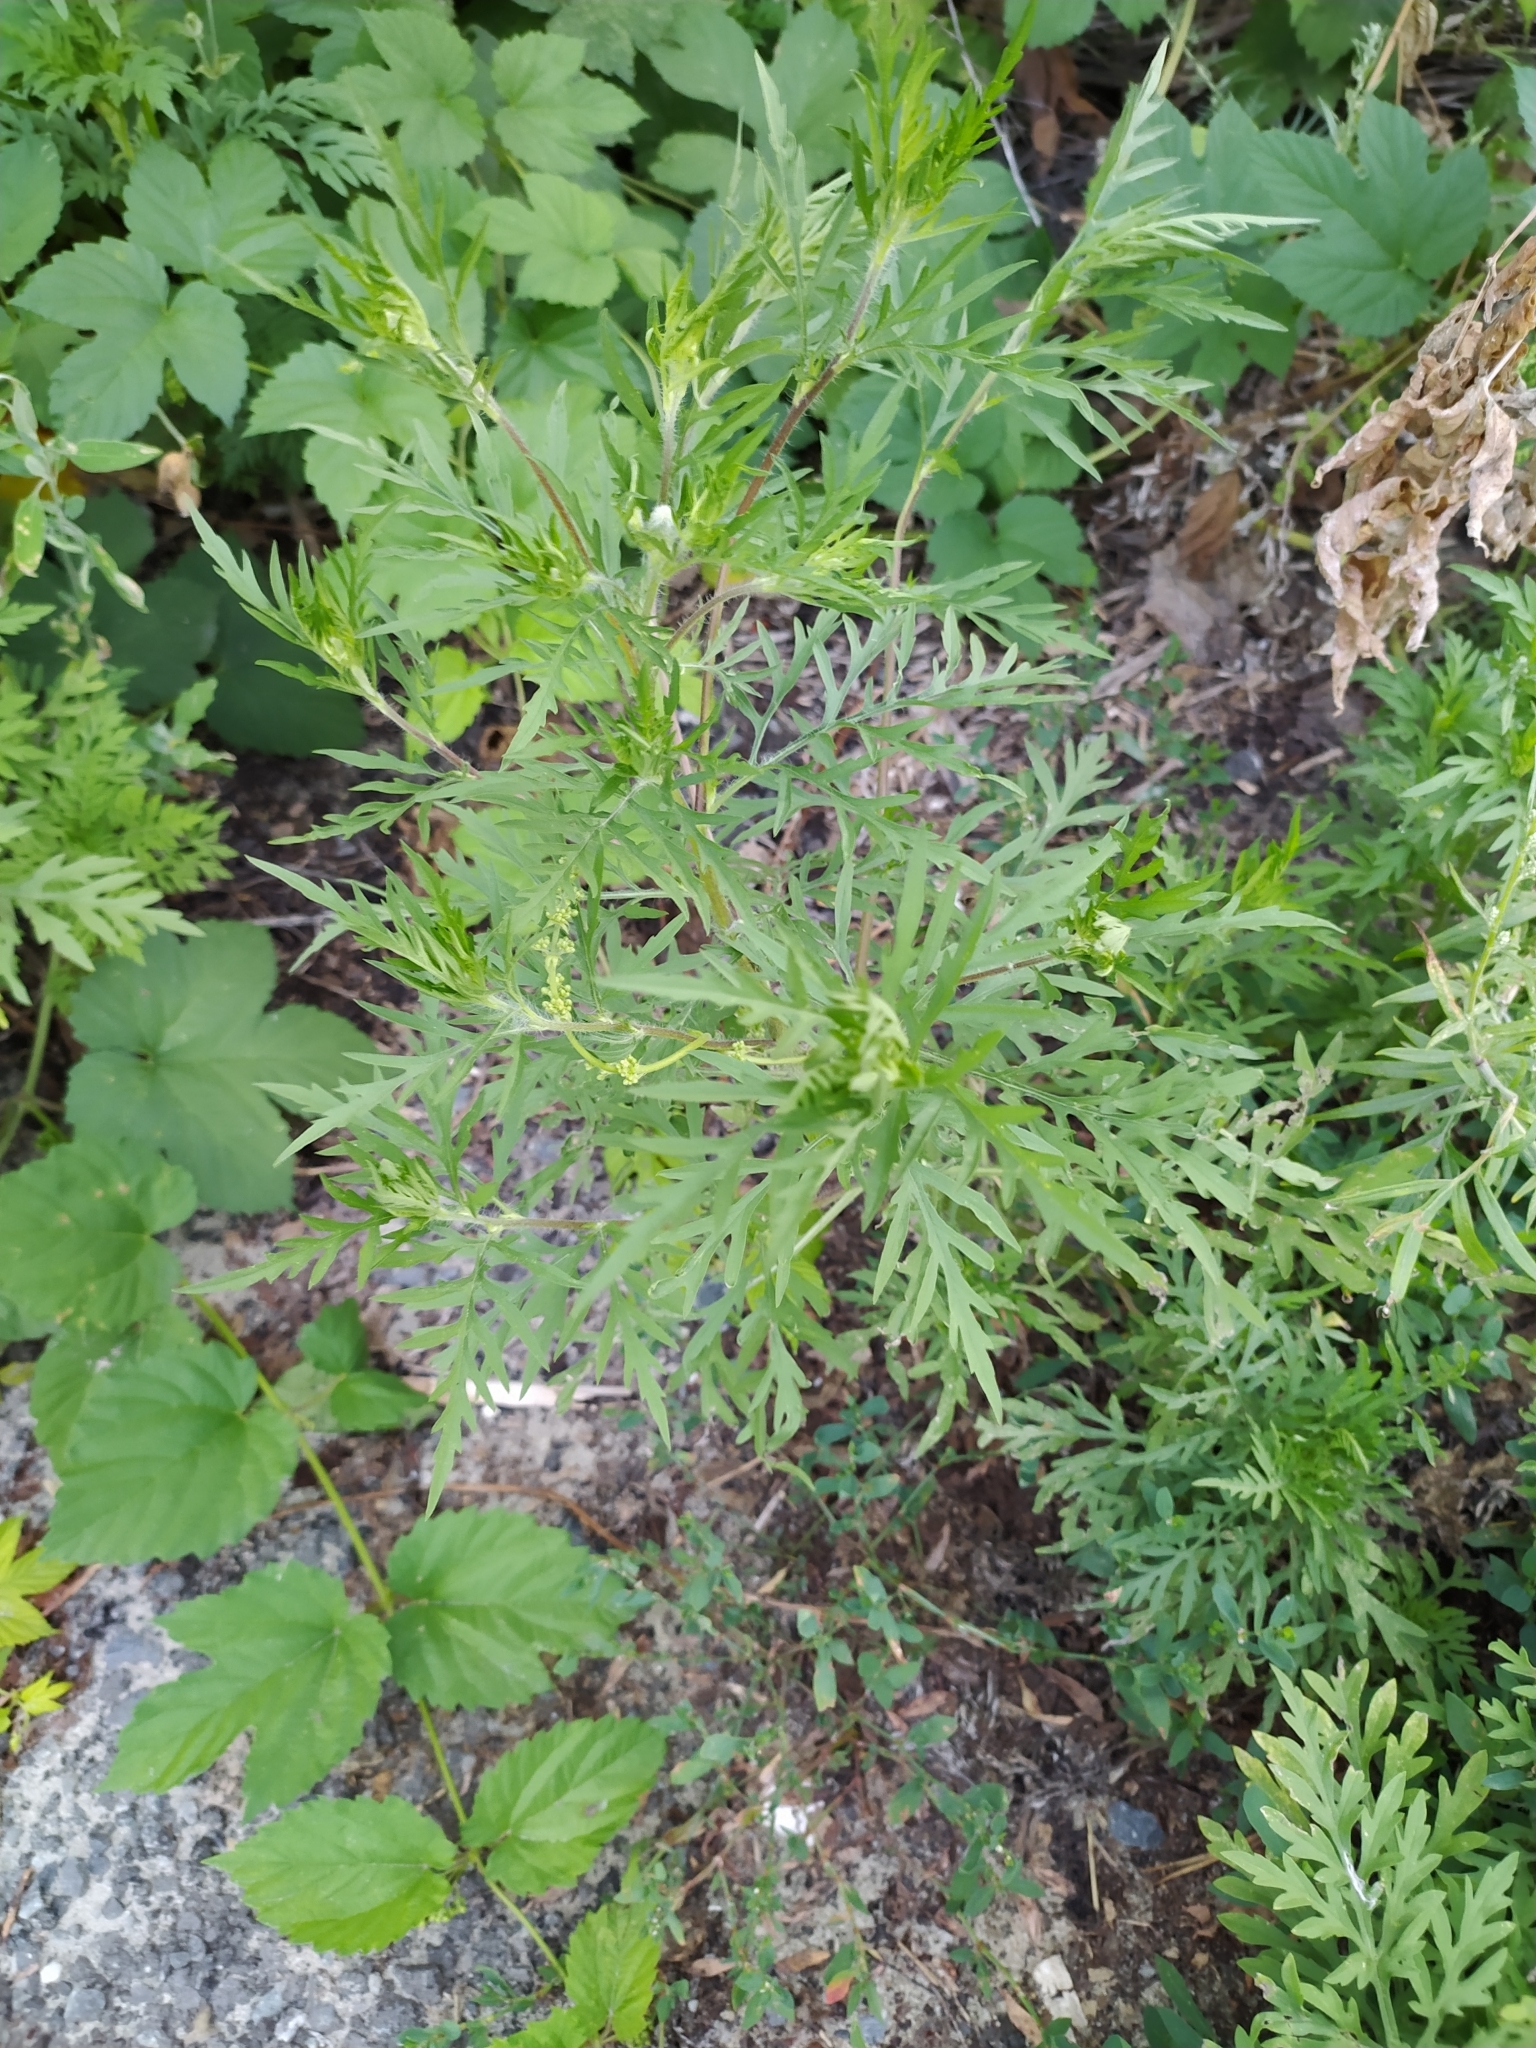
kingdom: Plantae
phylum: Tracheophyta
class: Magnoliopsida
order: Asterales
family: Asteraceae
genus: Ambrosia
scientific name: Ambrosia artemisiifolia
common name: Annual ragweed
